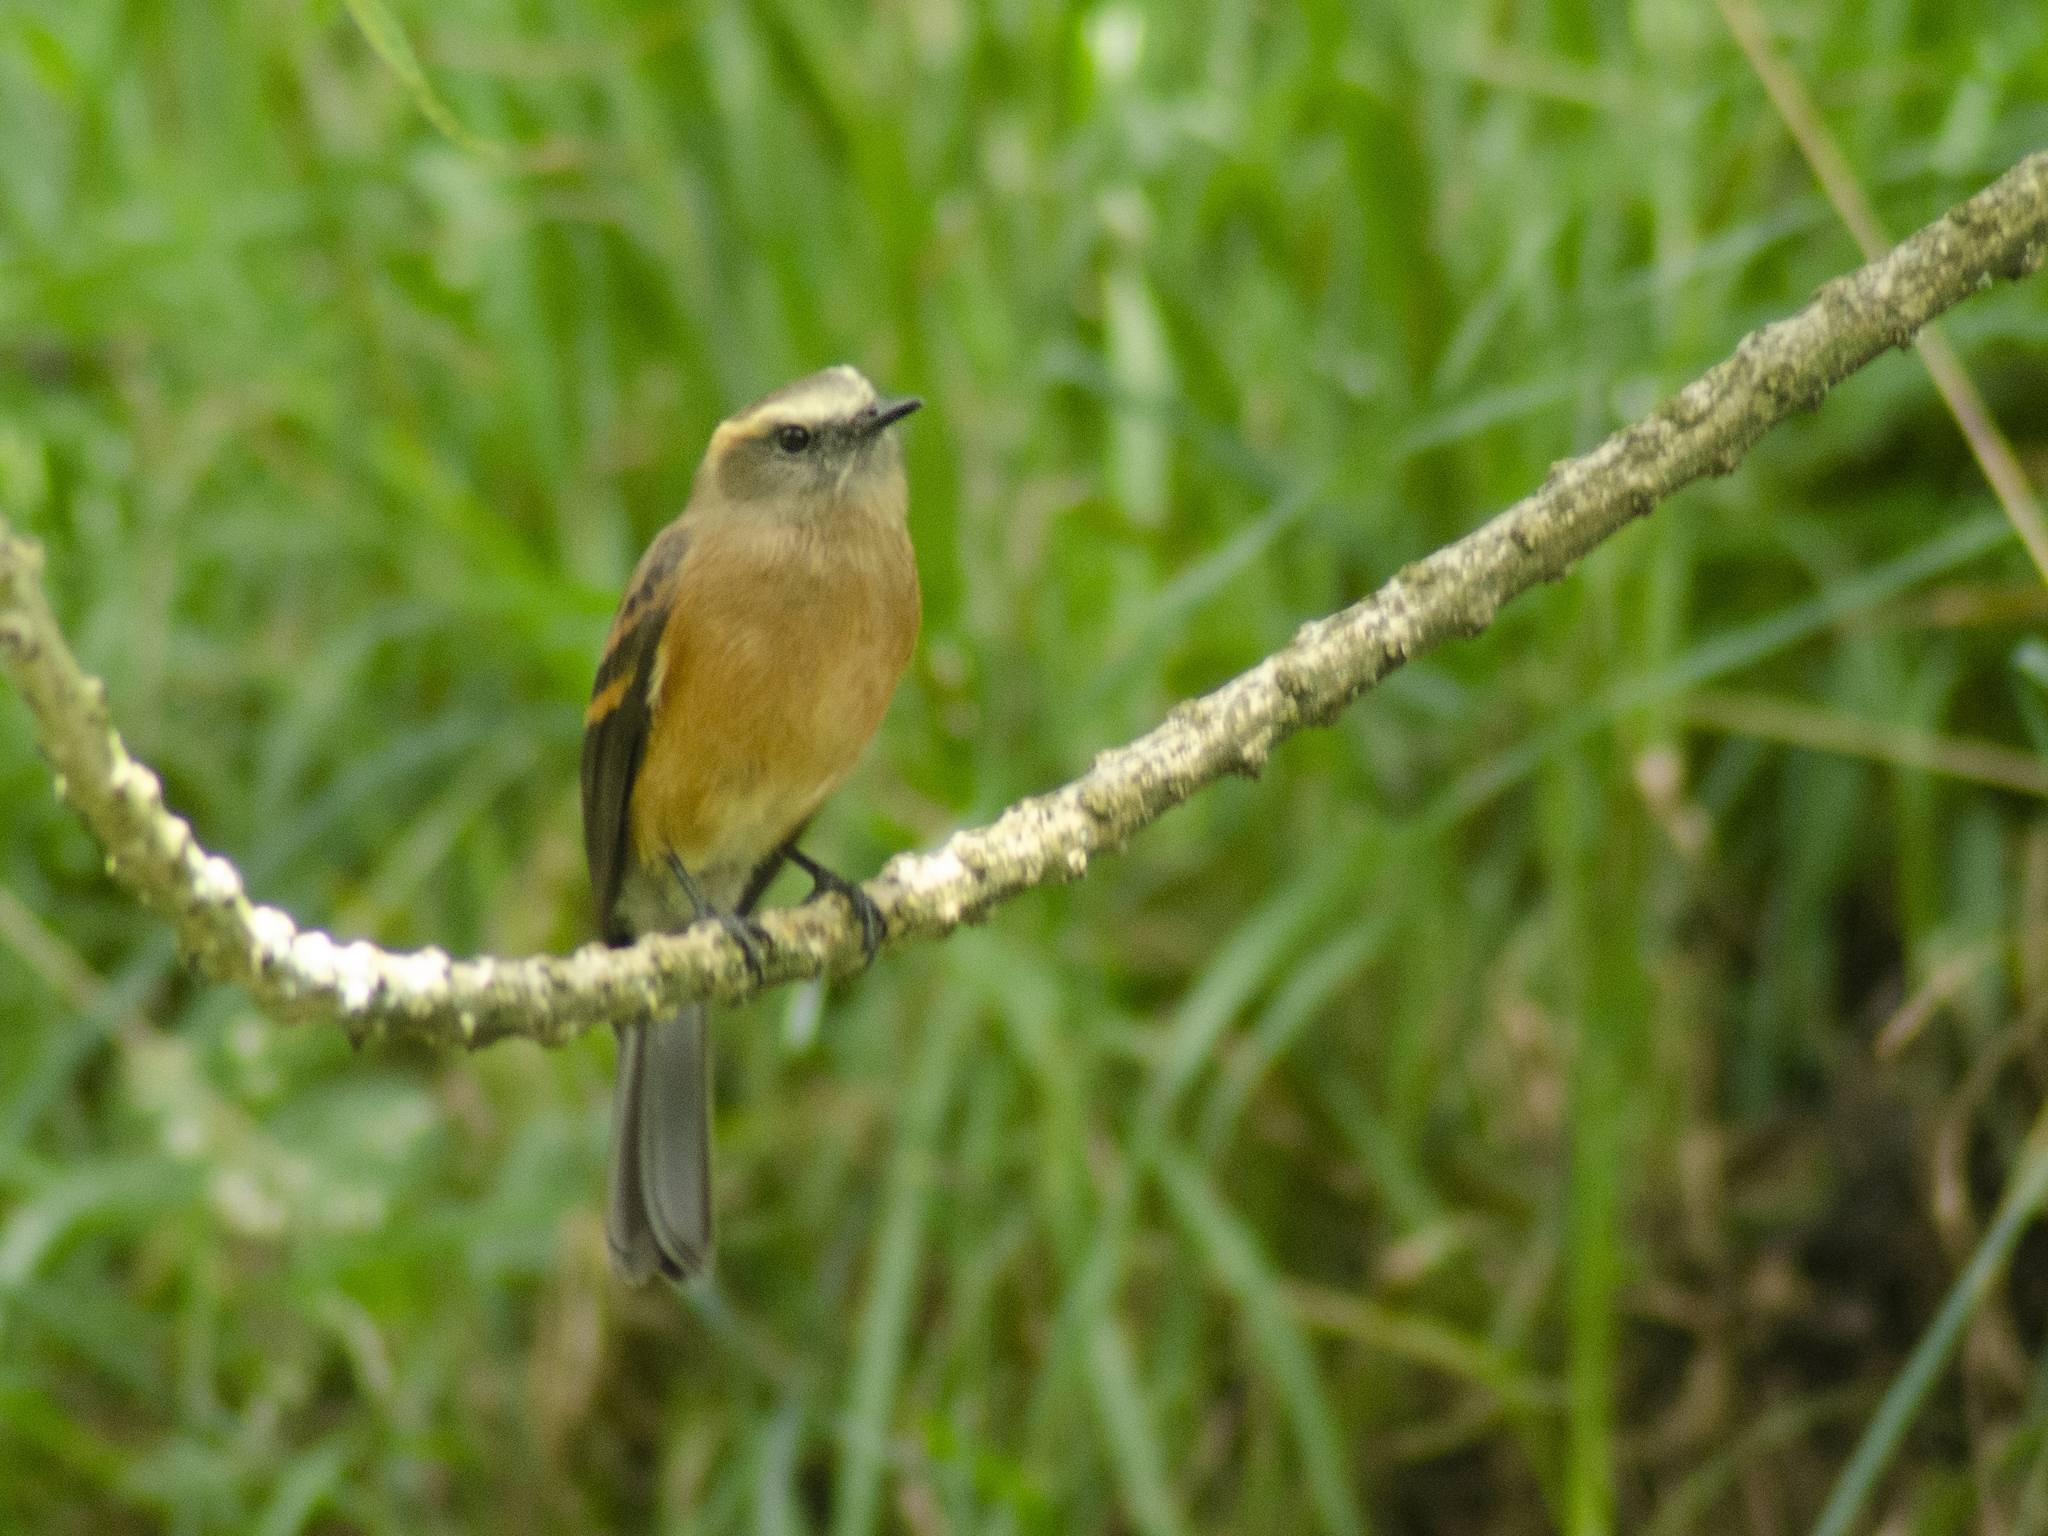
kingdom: Animalia
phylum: Chordata
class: Aves
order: Passeriformes
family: Tyrannidae
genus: Ochthoeca
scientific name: Ochthoeca fumicolor
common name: Brown-backed chat-tyrant
